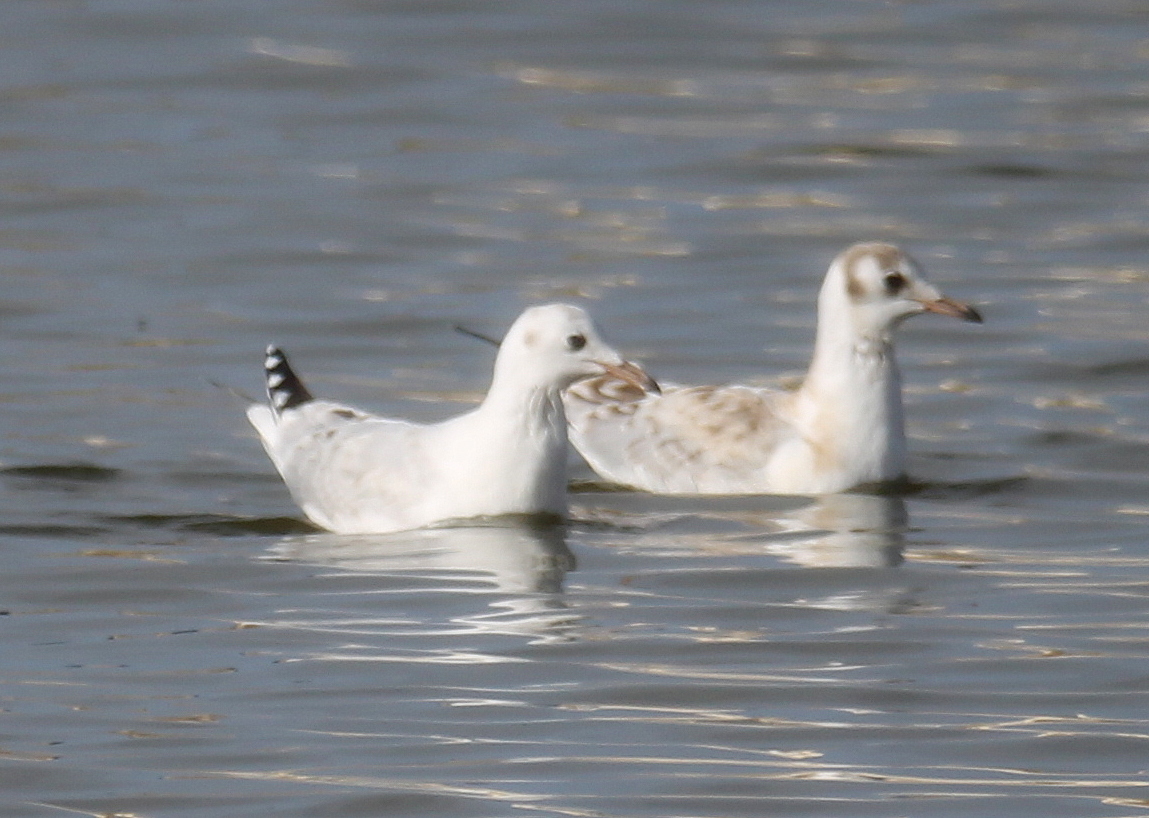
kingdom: Animalia
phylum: Chordata
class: Aves
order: Charadriiformes
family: Laridae
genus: Chroicocephalus
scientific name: Chroicocephalus maculipennis
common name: Brown-hooded gull
